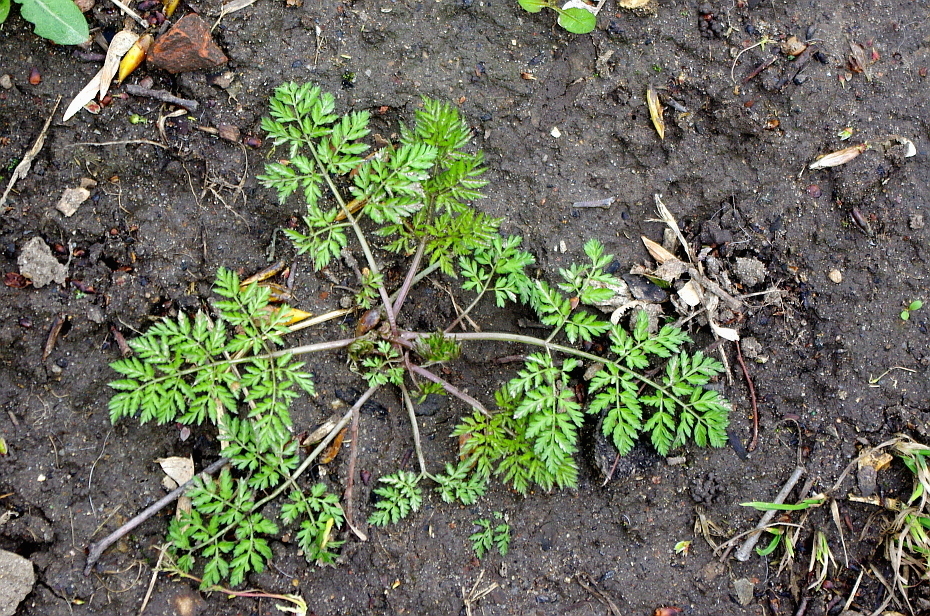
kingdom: Plantae
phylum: Tracheophyta
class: Magnoliopsida
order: Apiales
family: Apiaceae
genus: Anthriscus
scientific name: Anthriscus sylvestris
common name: Cow parsley
